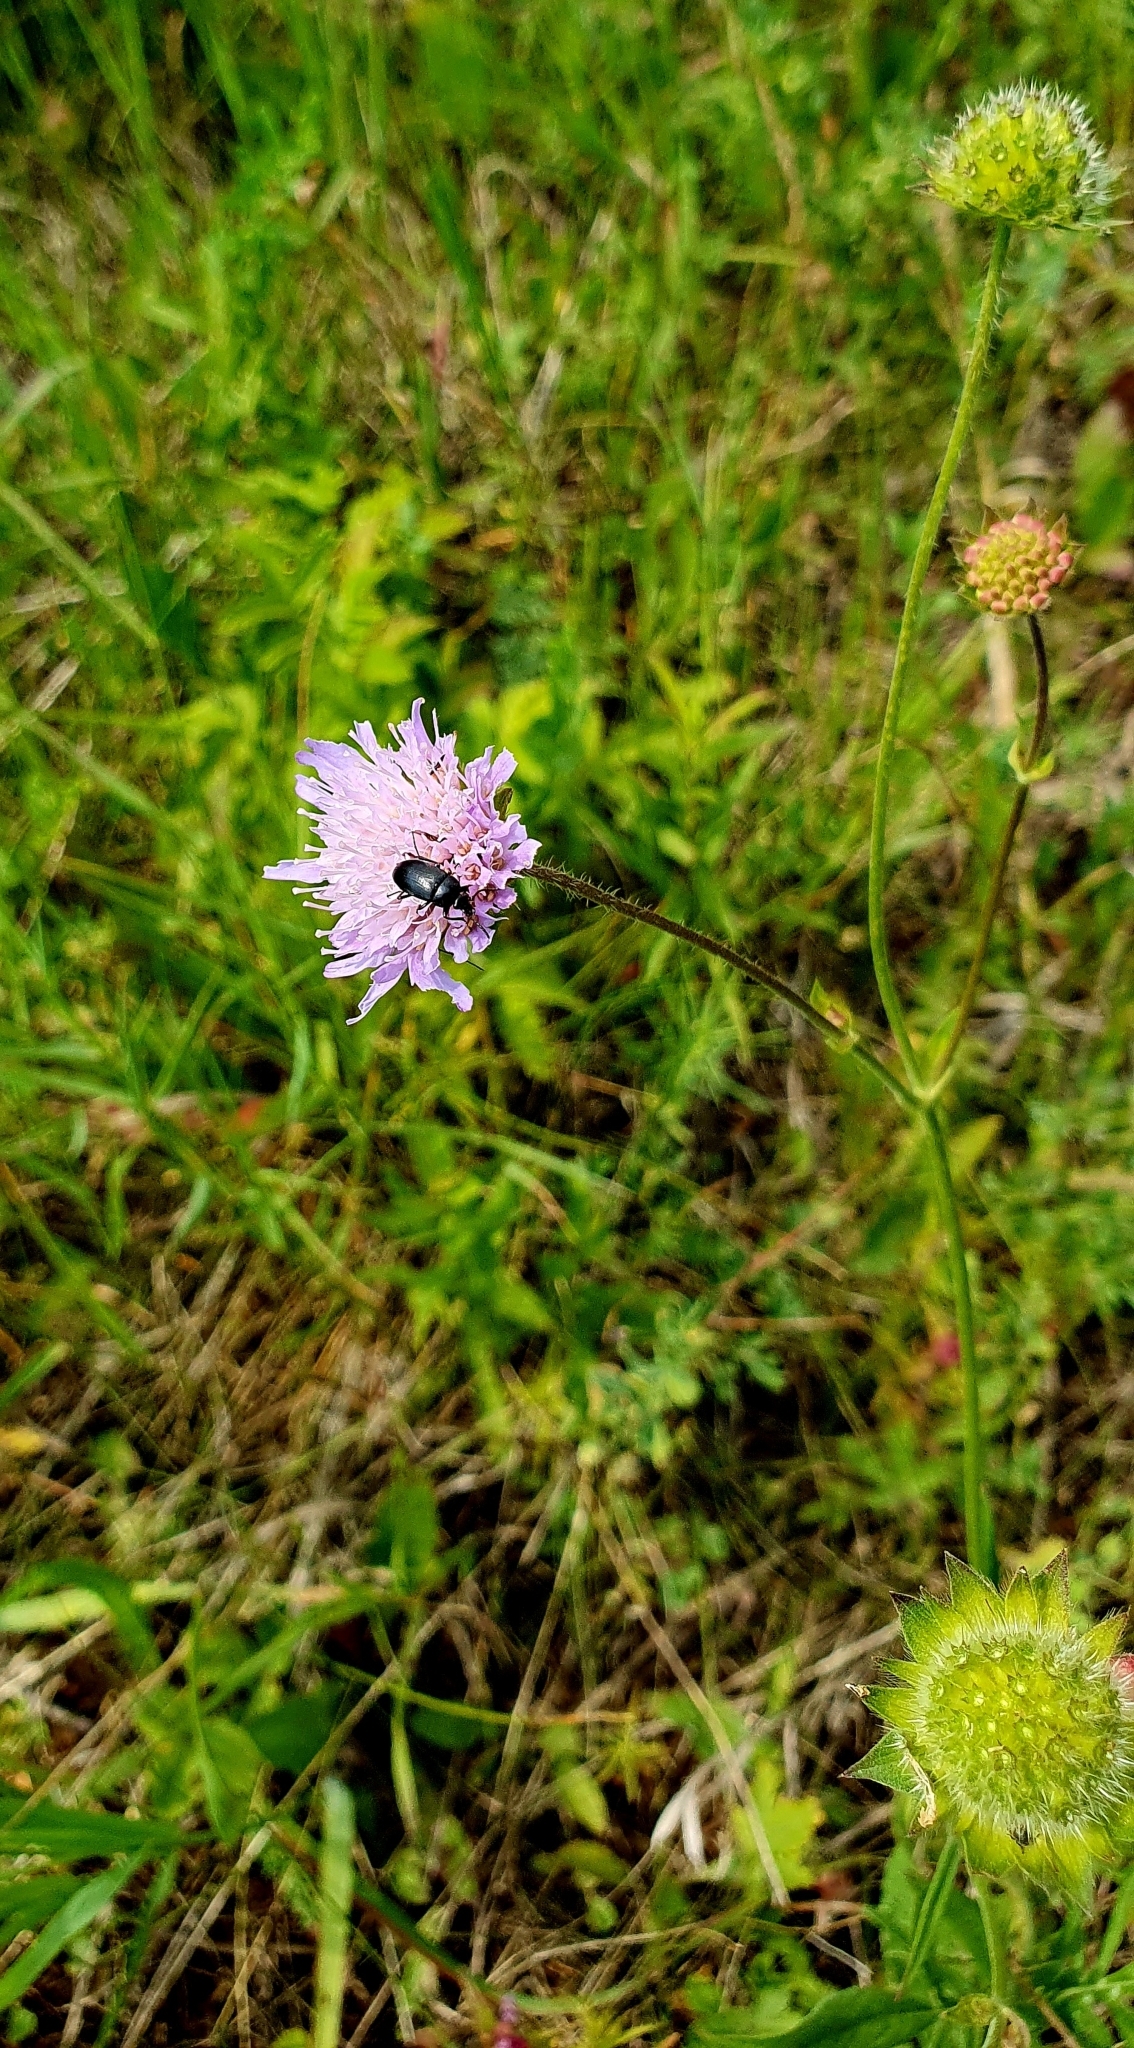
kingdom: Plantae
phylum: Tracheophyta
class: Magnoliopsida
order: Dipsacales
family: Caprifoliaceae
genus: Knautia
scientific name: Knautia arvensis
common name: Field scabiosa
